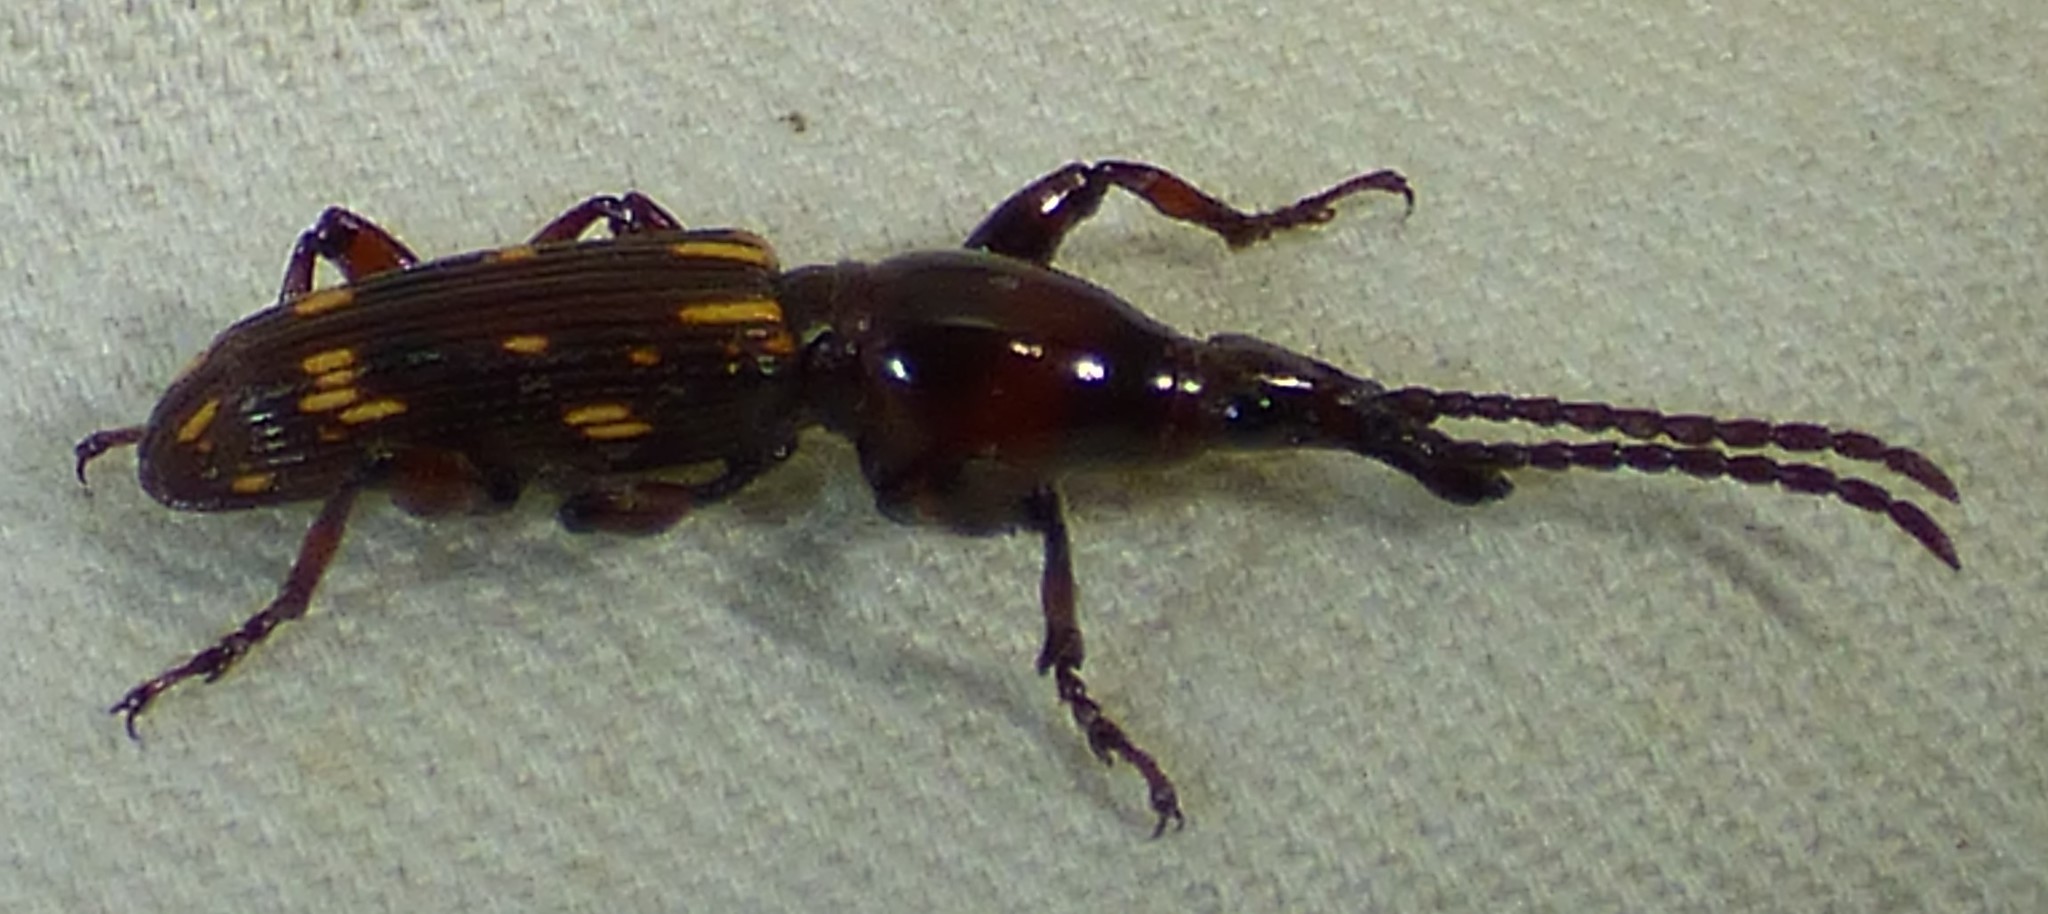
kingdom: Animalia
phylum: Arthropoda
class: Insecta
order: Coleoptera
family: Brentidae
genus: Arrenodes
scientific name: Arrenodes minutus
